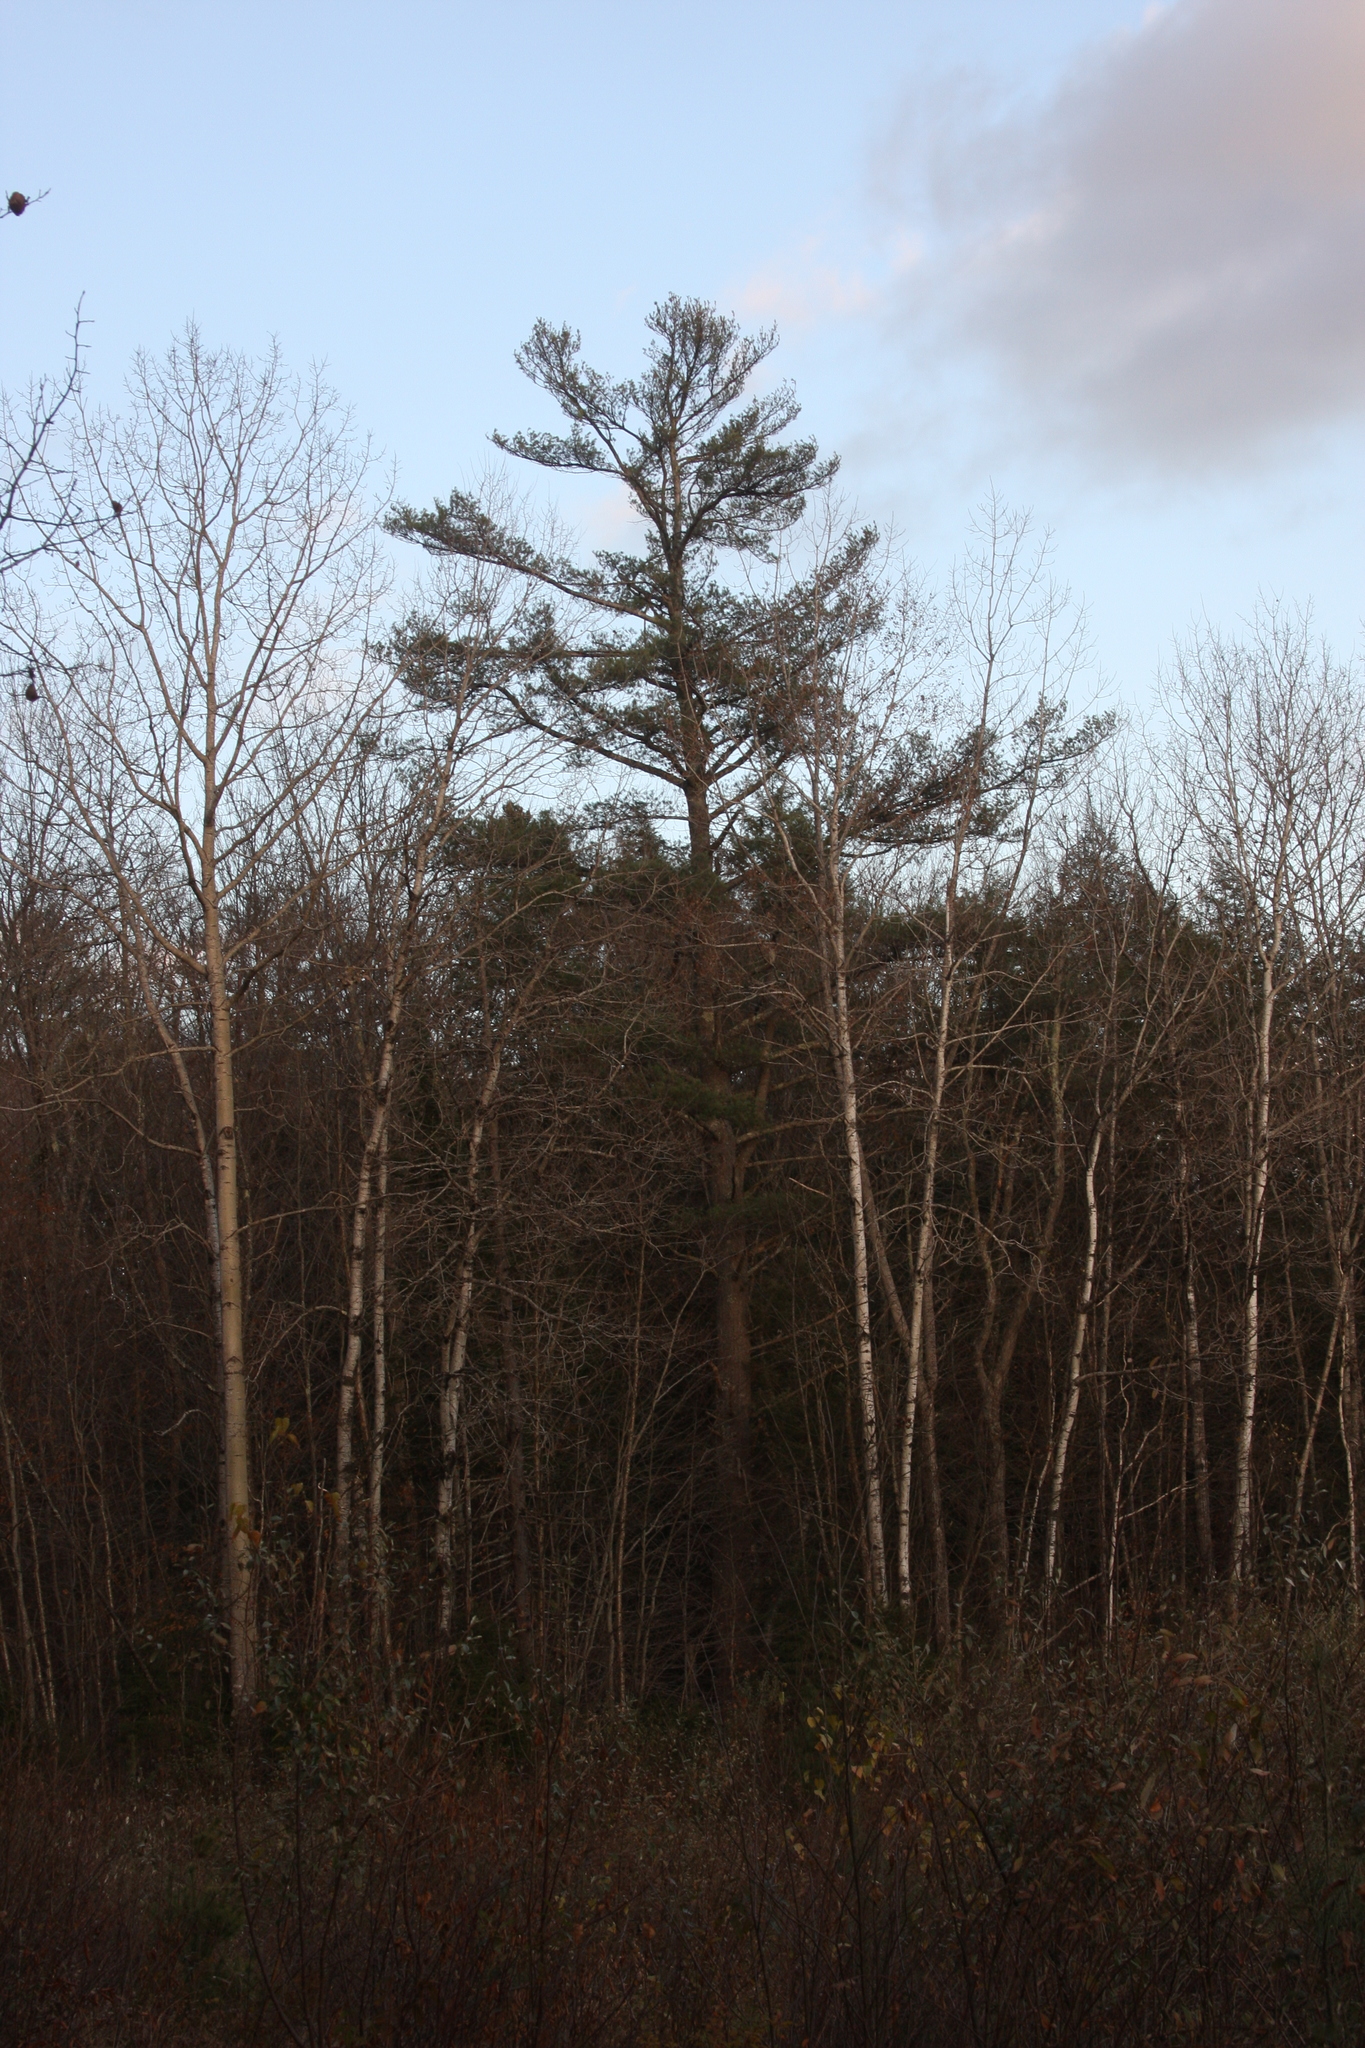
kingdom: Plantae
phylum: Tracheophyta
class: Pinopsida
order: Pinales
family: Pinaceae
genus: Pinus
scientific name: Pinus strobus
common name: Weymouth pine
